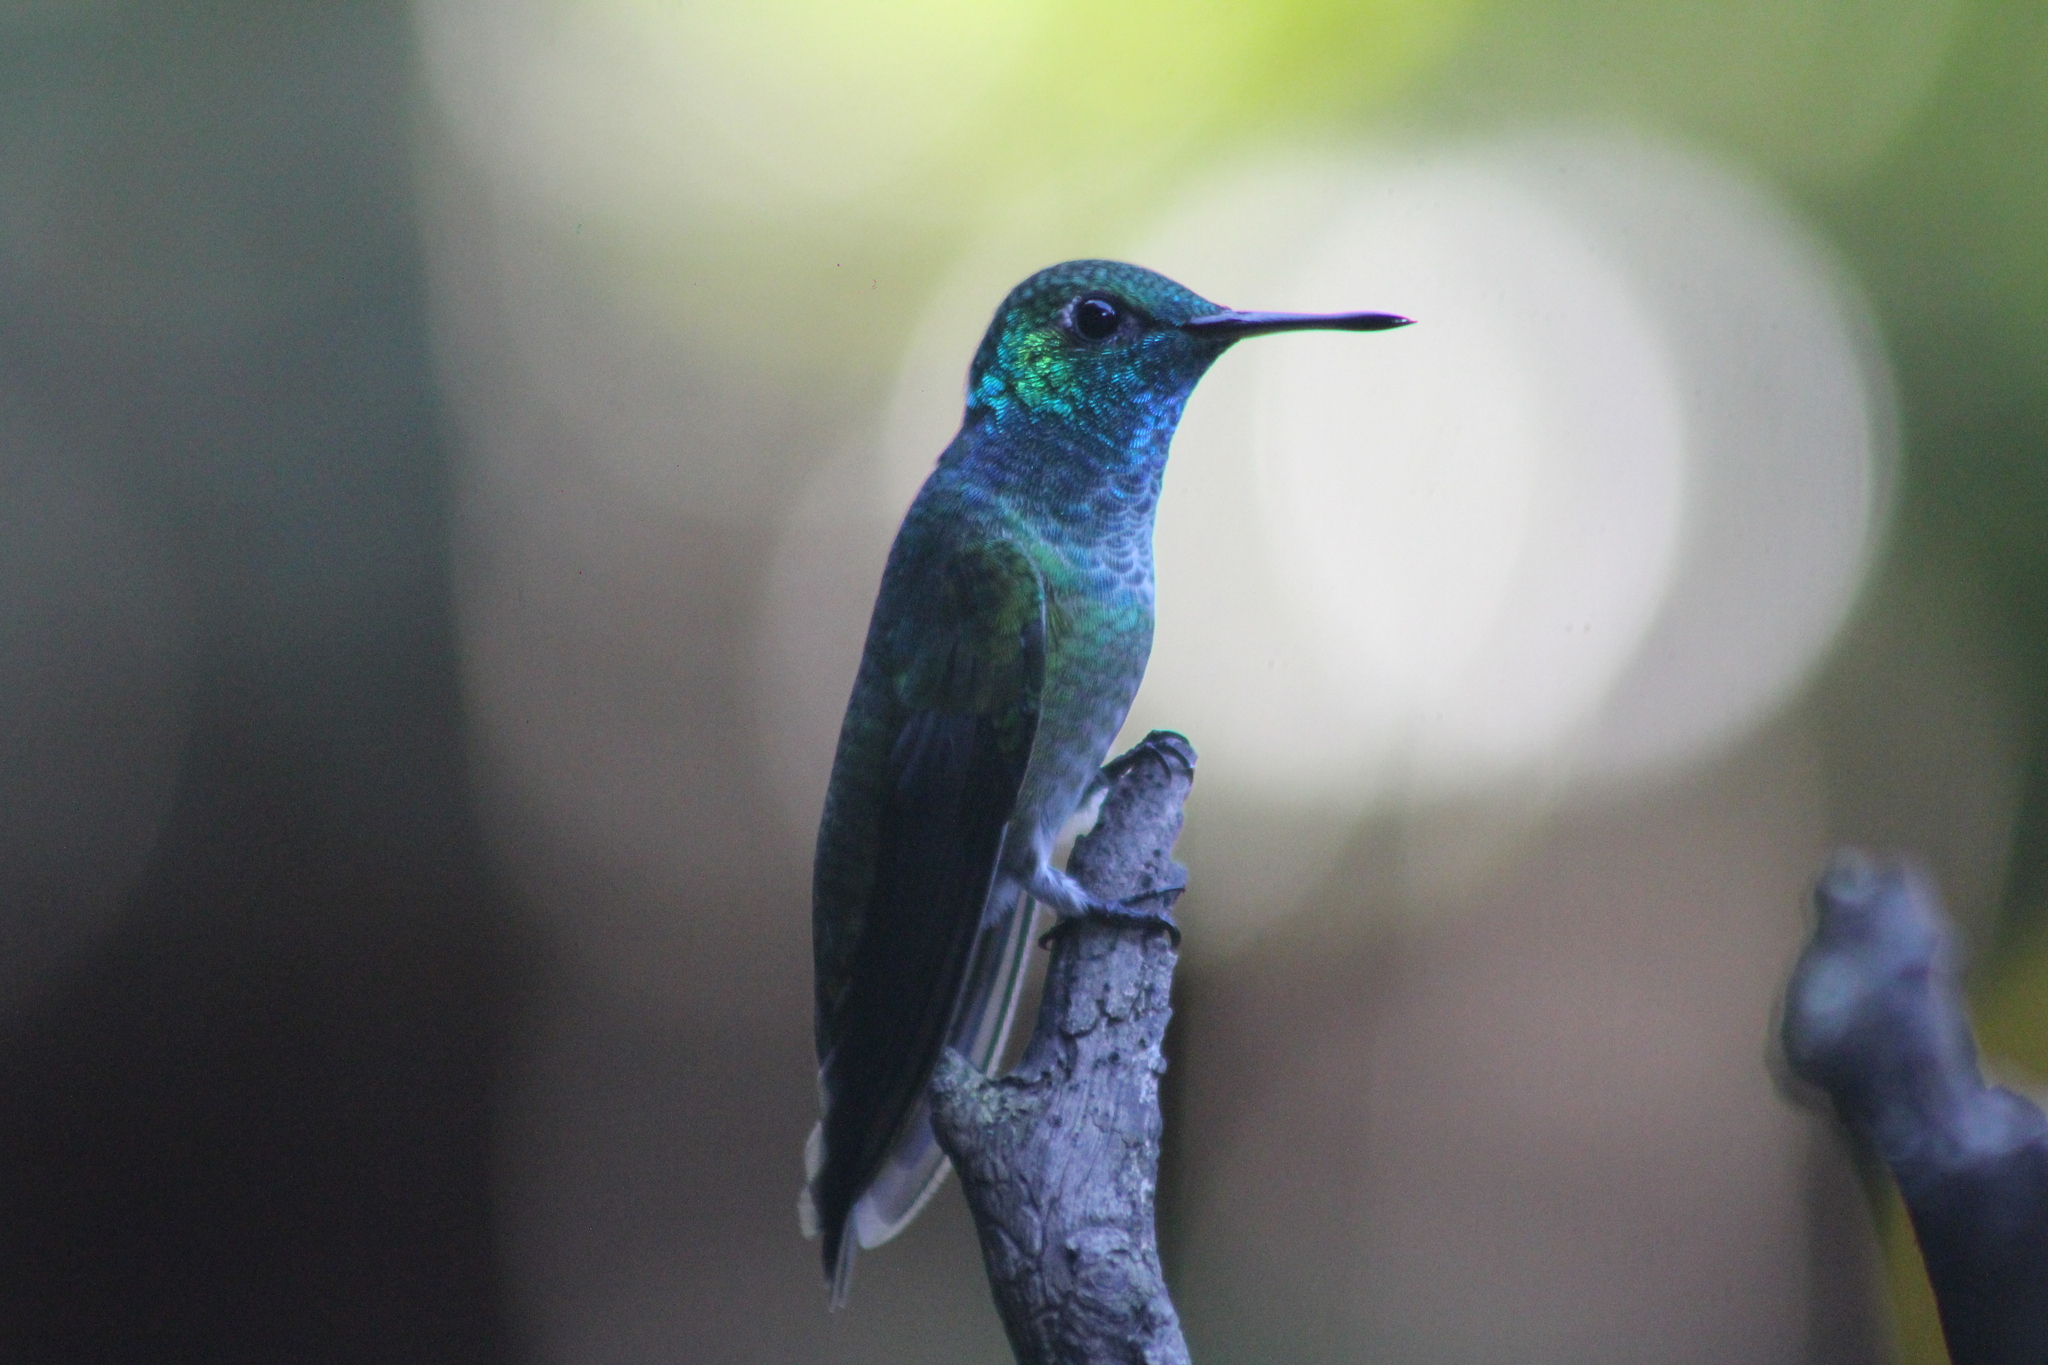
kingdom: Animalia
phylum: Chordata
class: Aves
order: Apodiformes
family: Trochilidae
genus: Chrysuronia
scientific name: Chrysuronia versicolor
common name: Versicolored emerald
